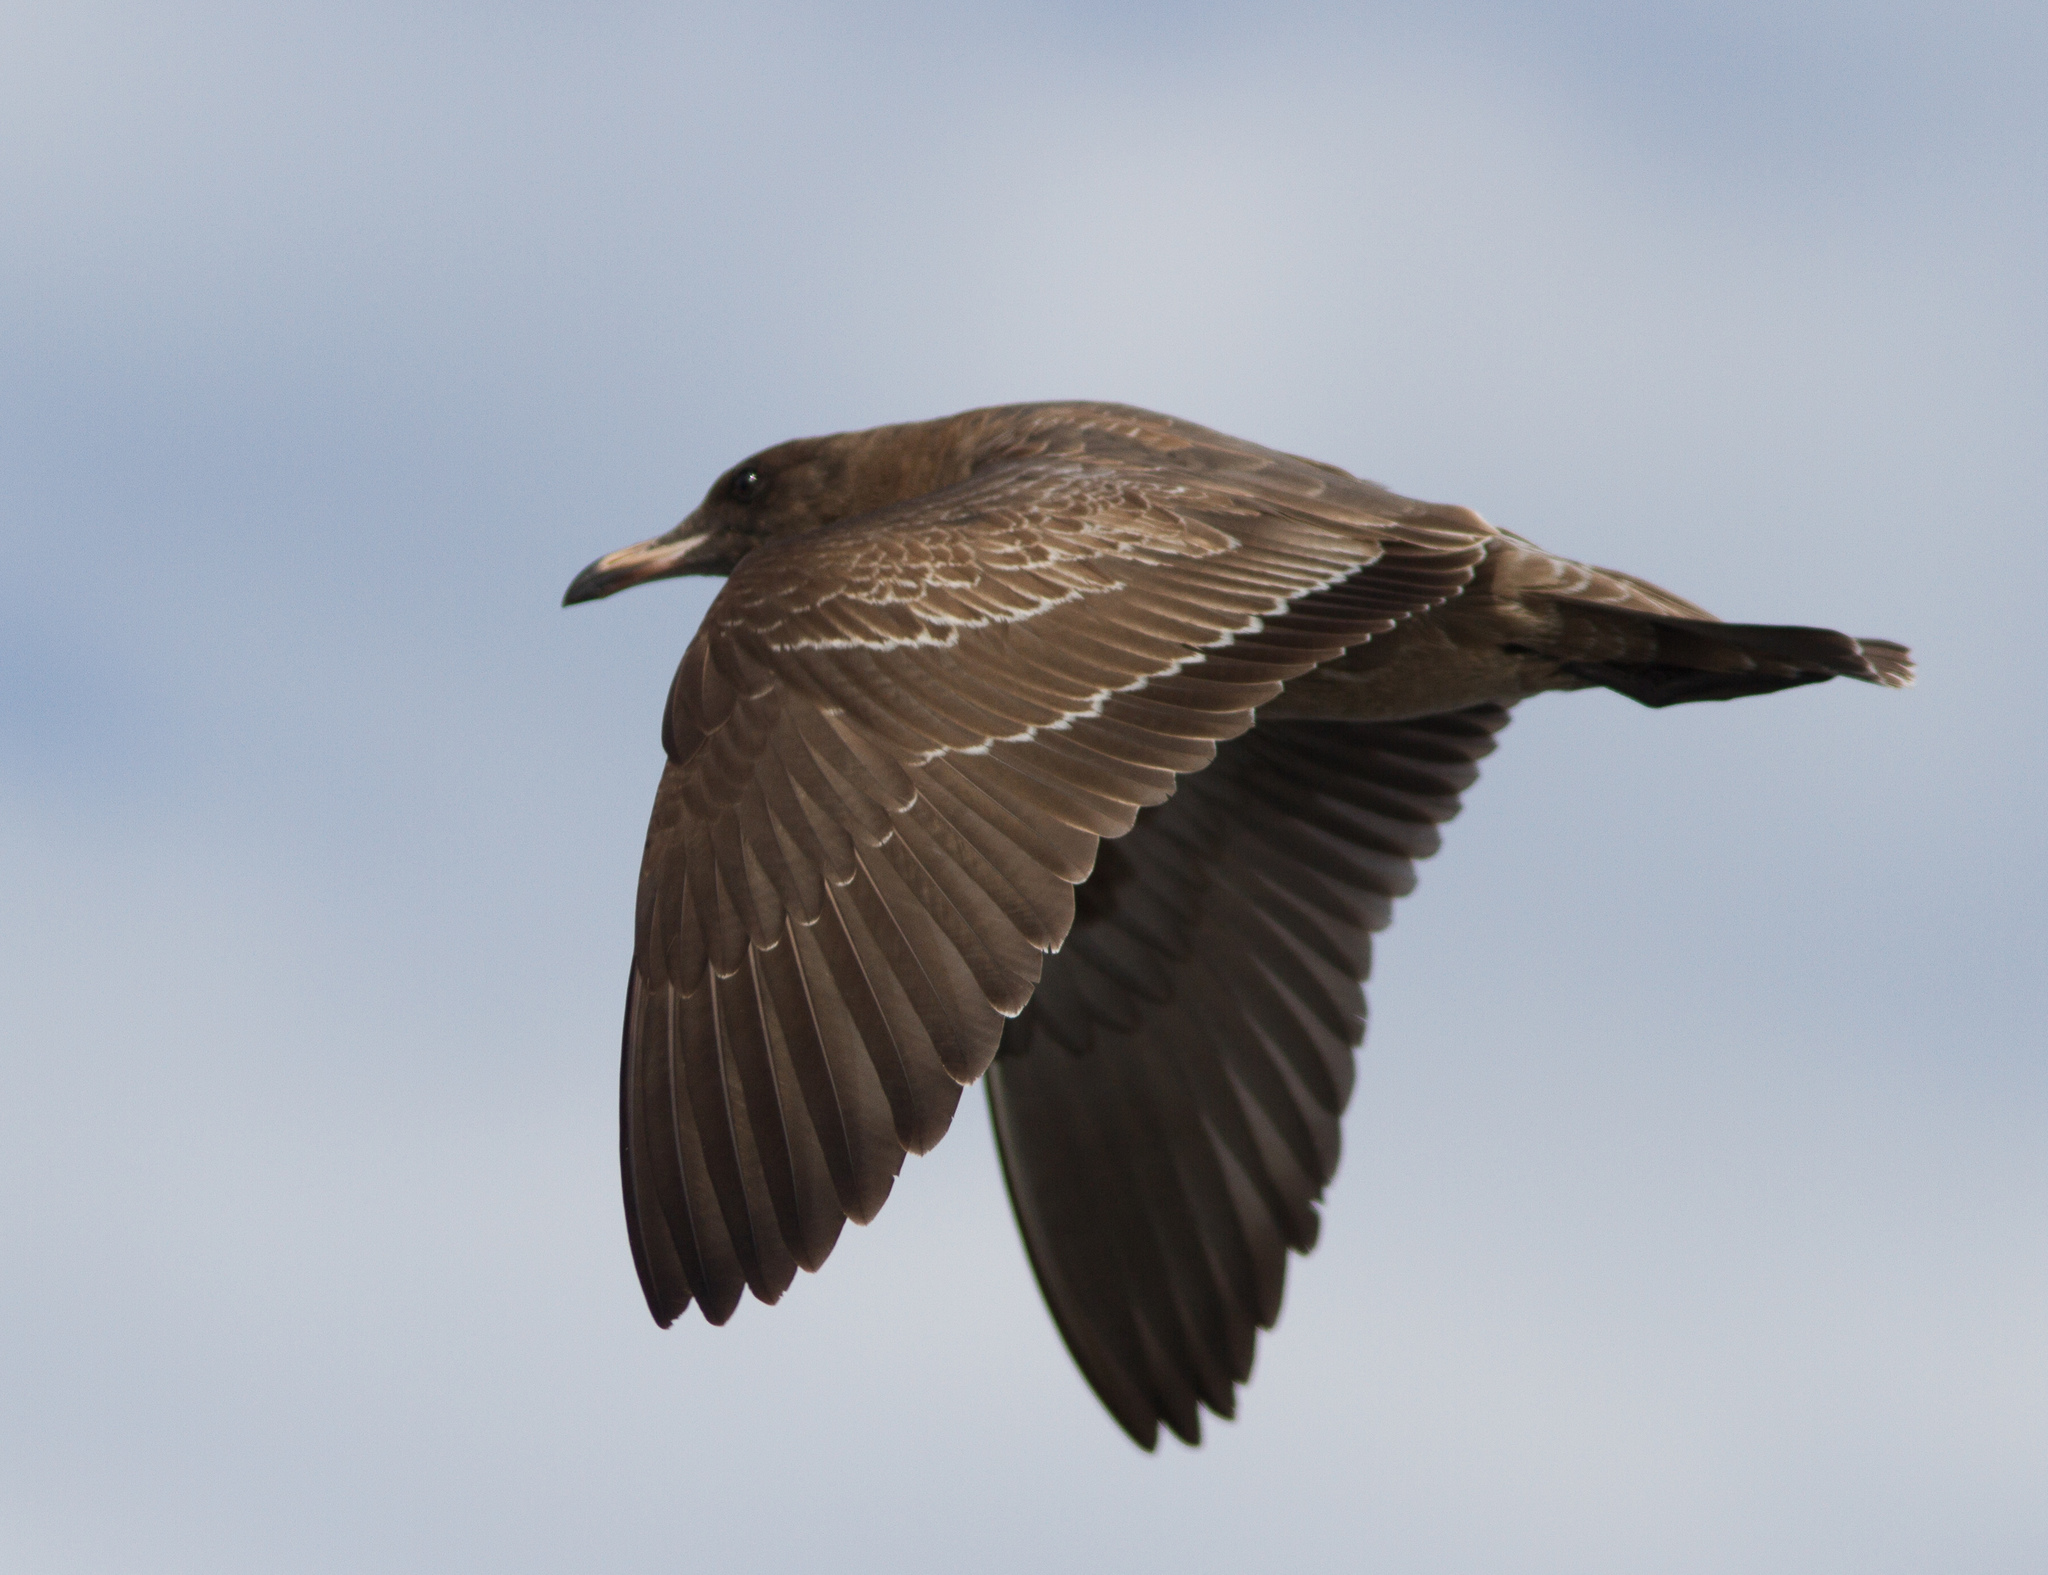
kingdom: Animalia
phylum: Chordata
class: Aves
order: Charadriiformes
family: Laridae
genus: Larus
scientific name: Larus heermanni
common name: Heermann's gull
